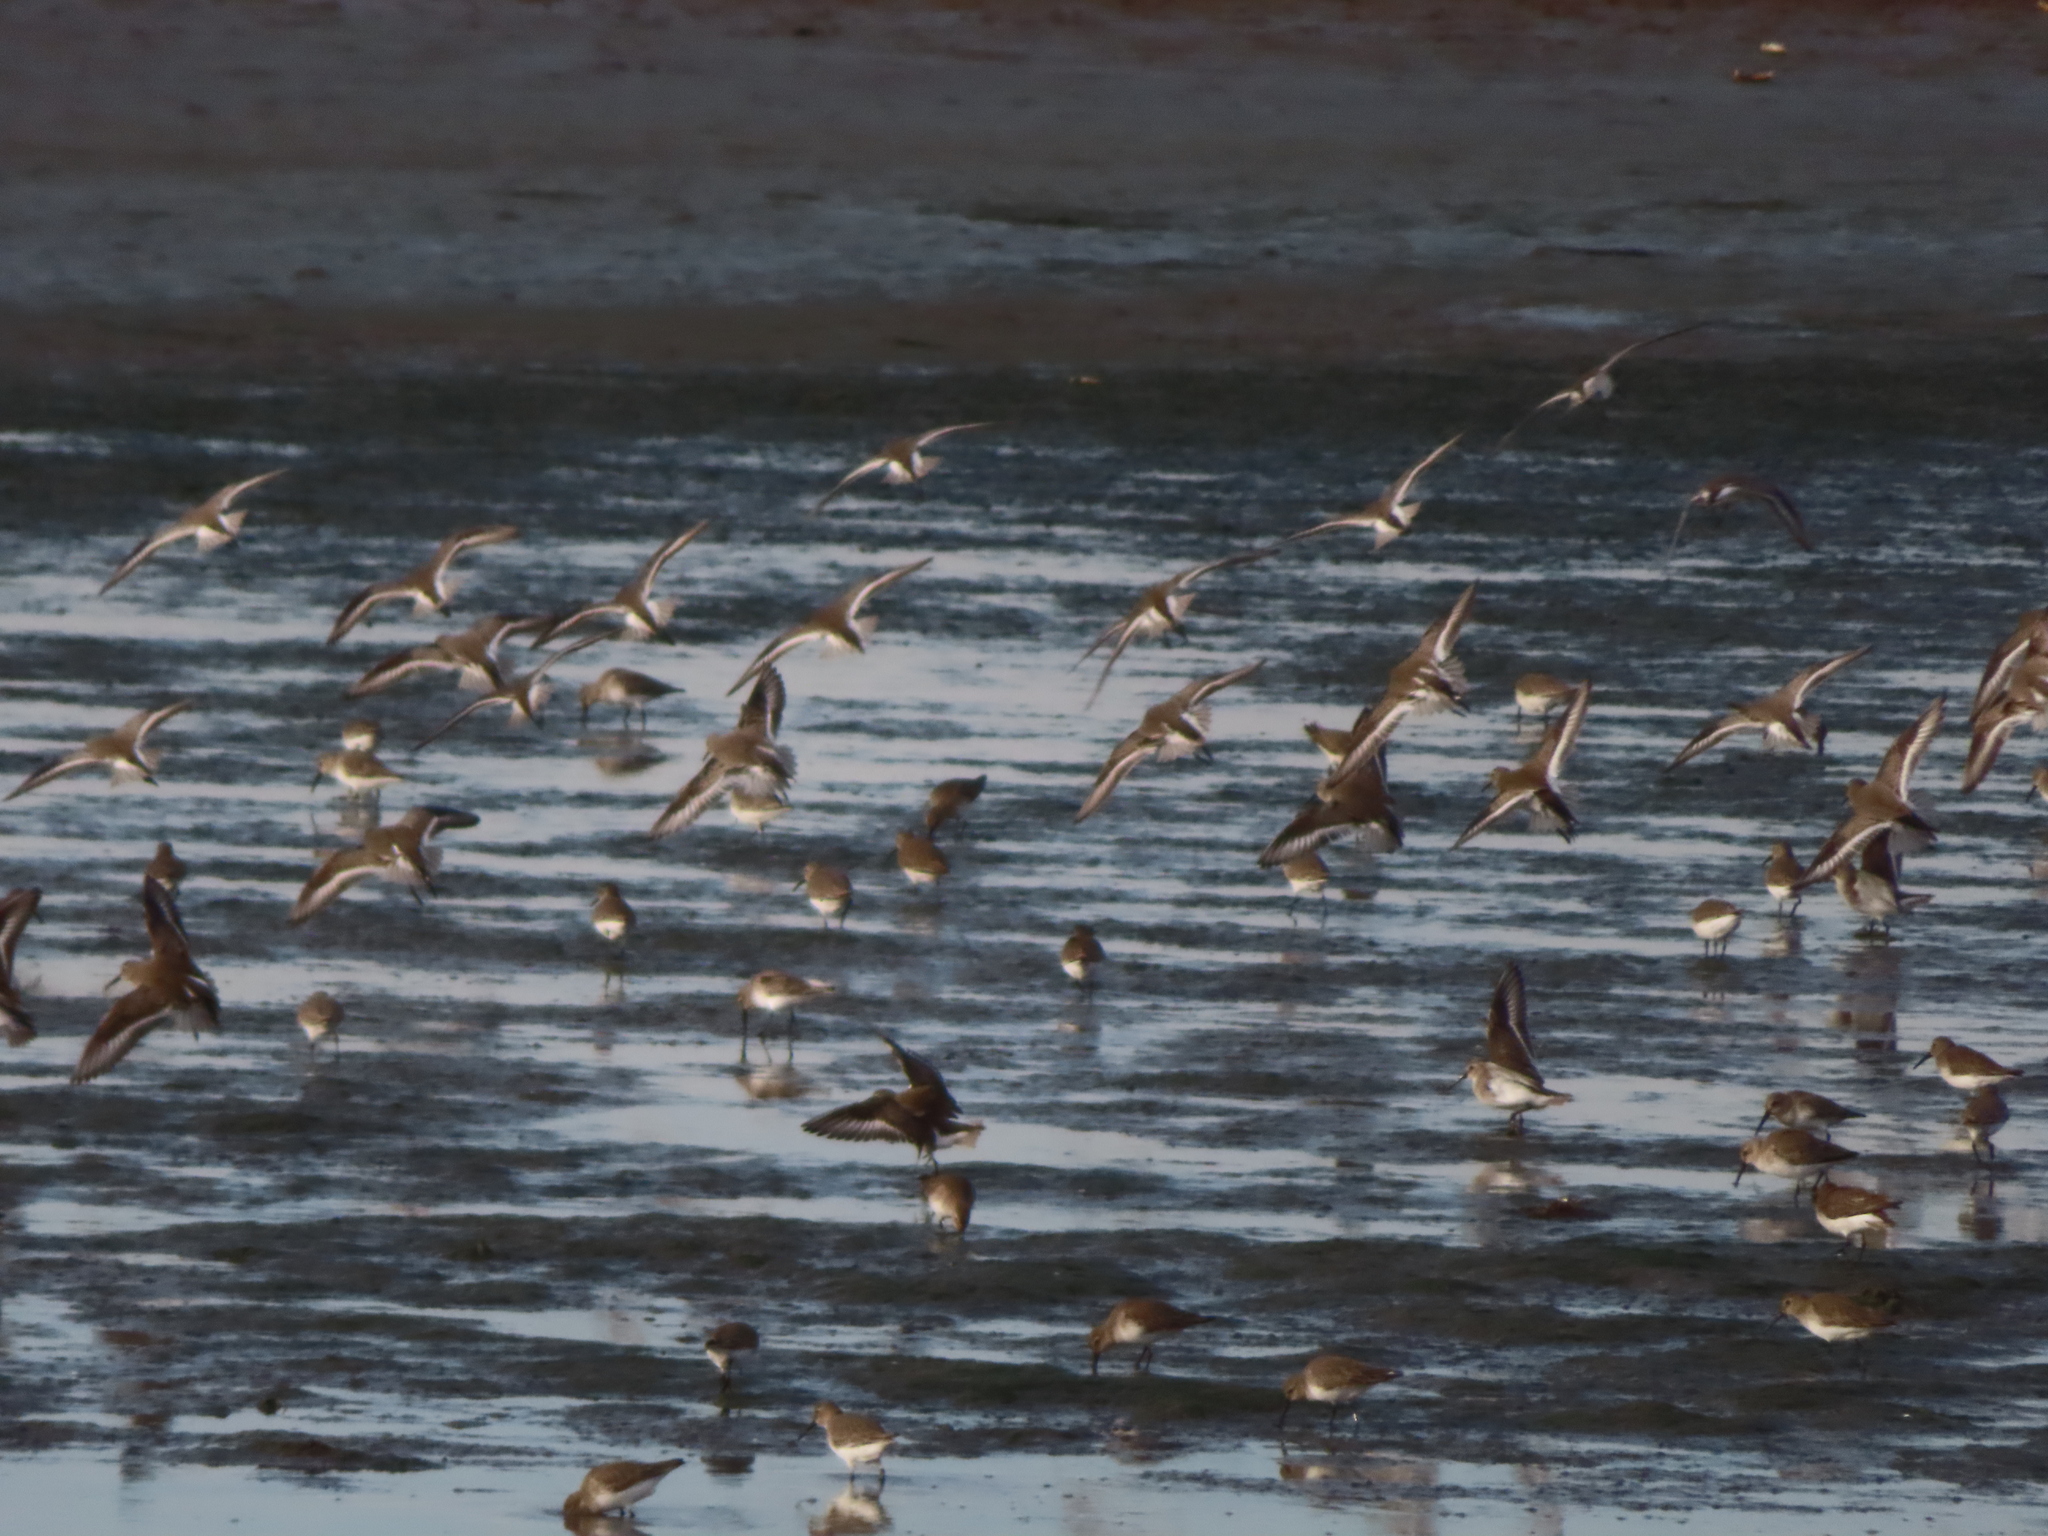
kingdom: Animalia
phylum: Chordata
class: Aves
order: Charadriiformes
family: Scolopacidae
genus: Calidris
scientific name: Calidris alpina
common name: Dunlin
